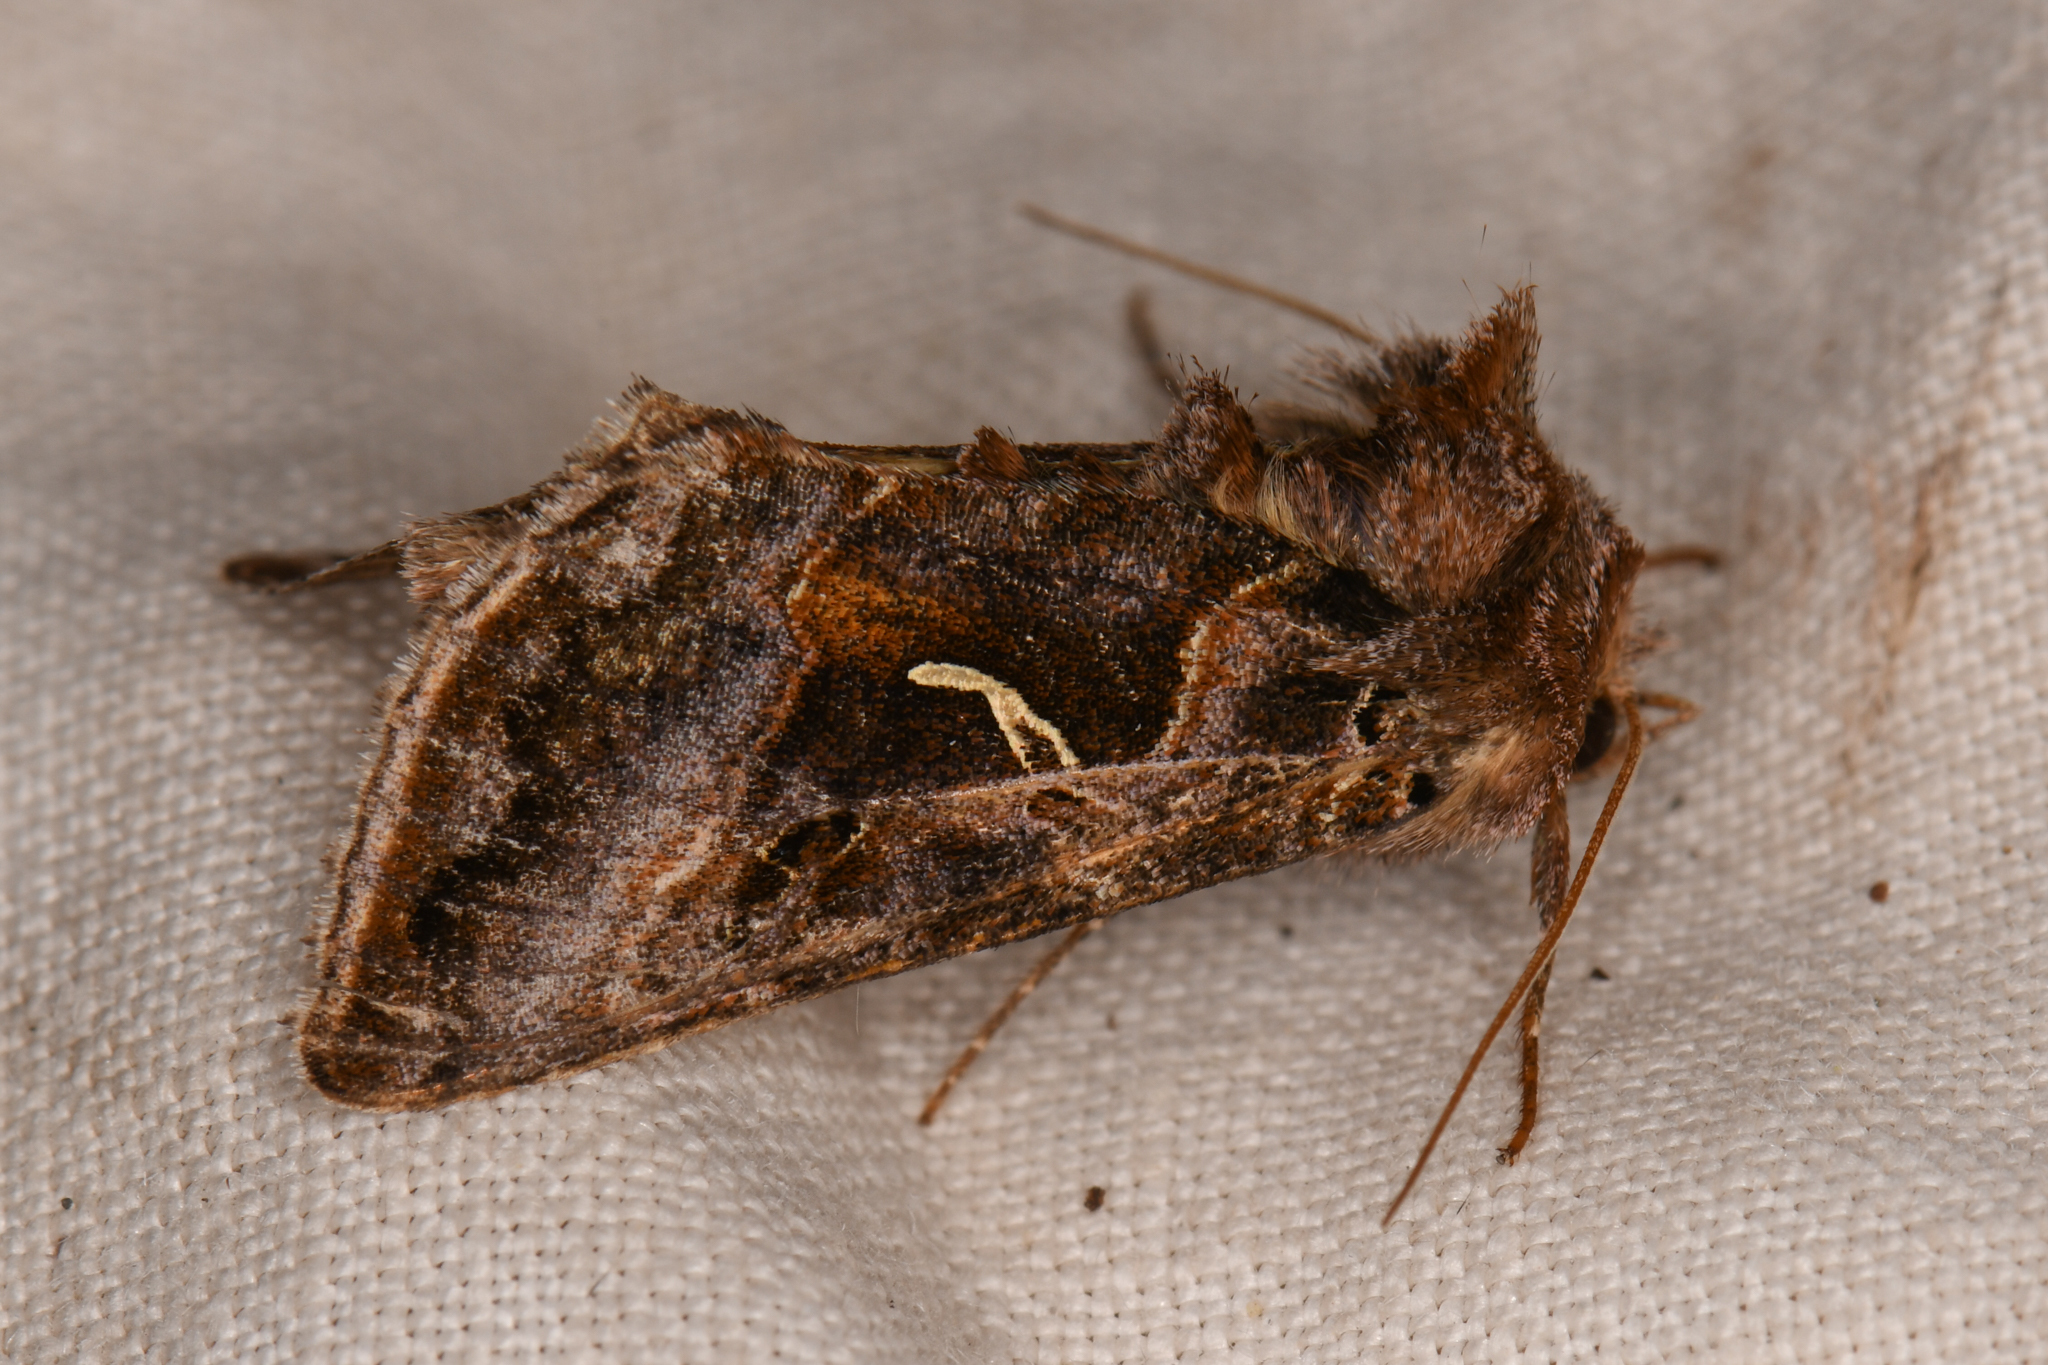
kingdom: Animalia
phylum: Arthropoda
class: Insecta
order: Lepidoptera
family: Noctuidae
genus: Autographa
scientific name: Autographa sansoni
